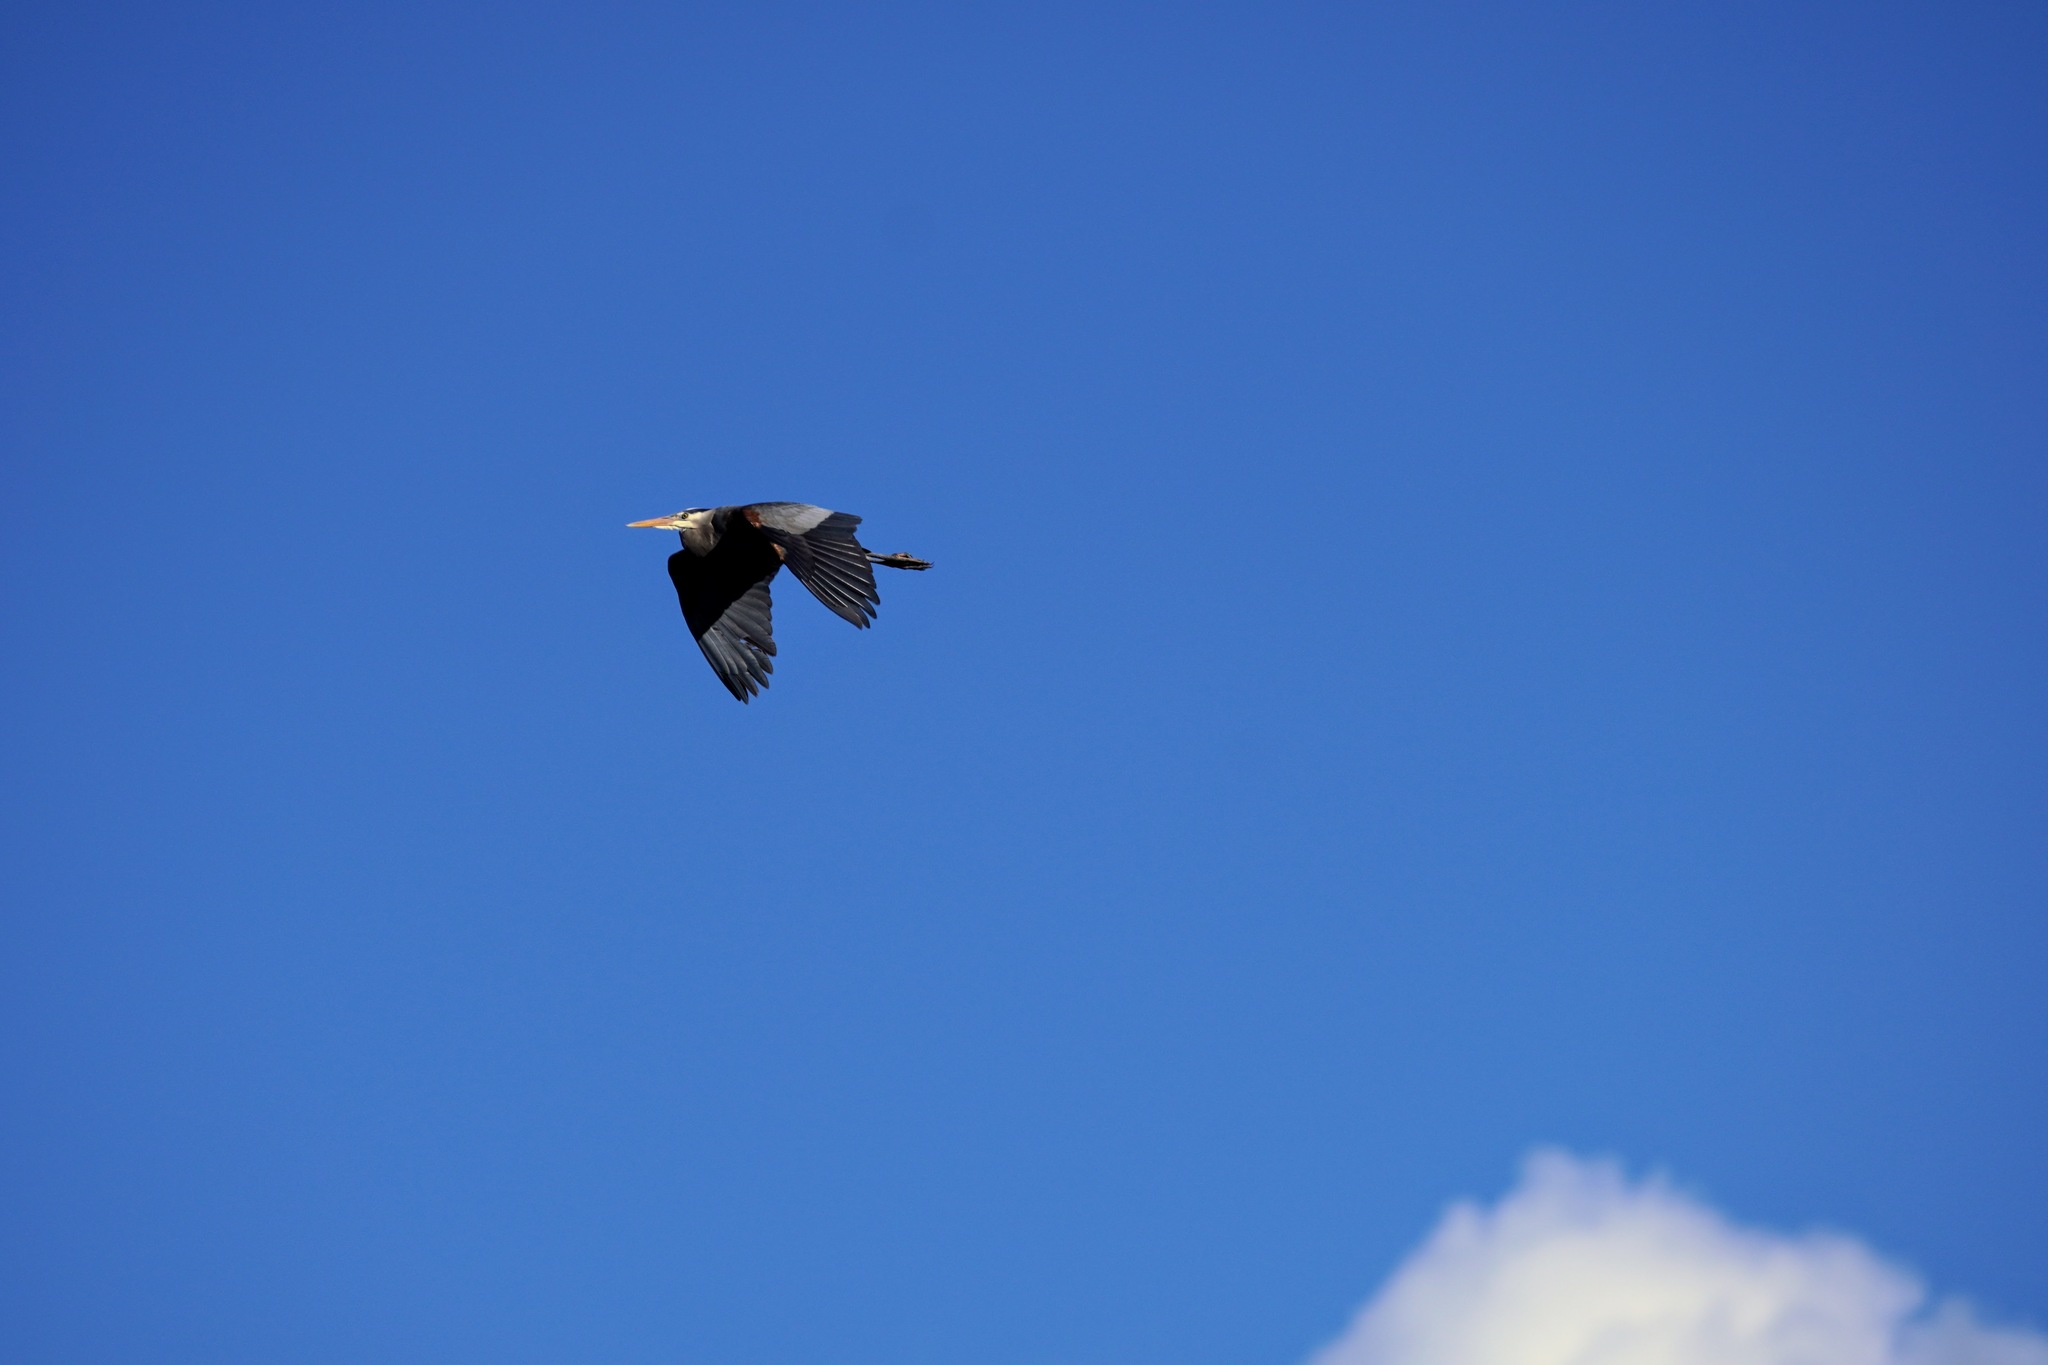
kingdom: Animalia
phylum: Chordata
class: Aves
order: Pelecaniformes
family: Ardeidae
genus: Ardea
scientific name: Ardea herodias
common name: Great blue heron
